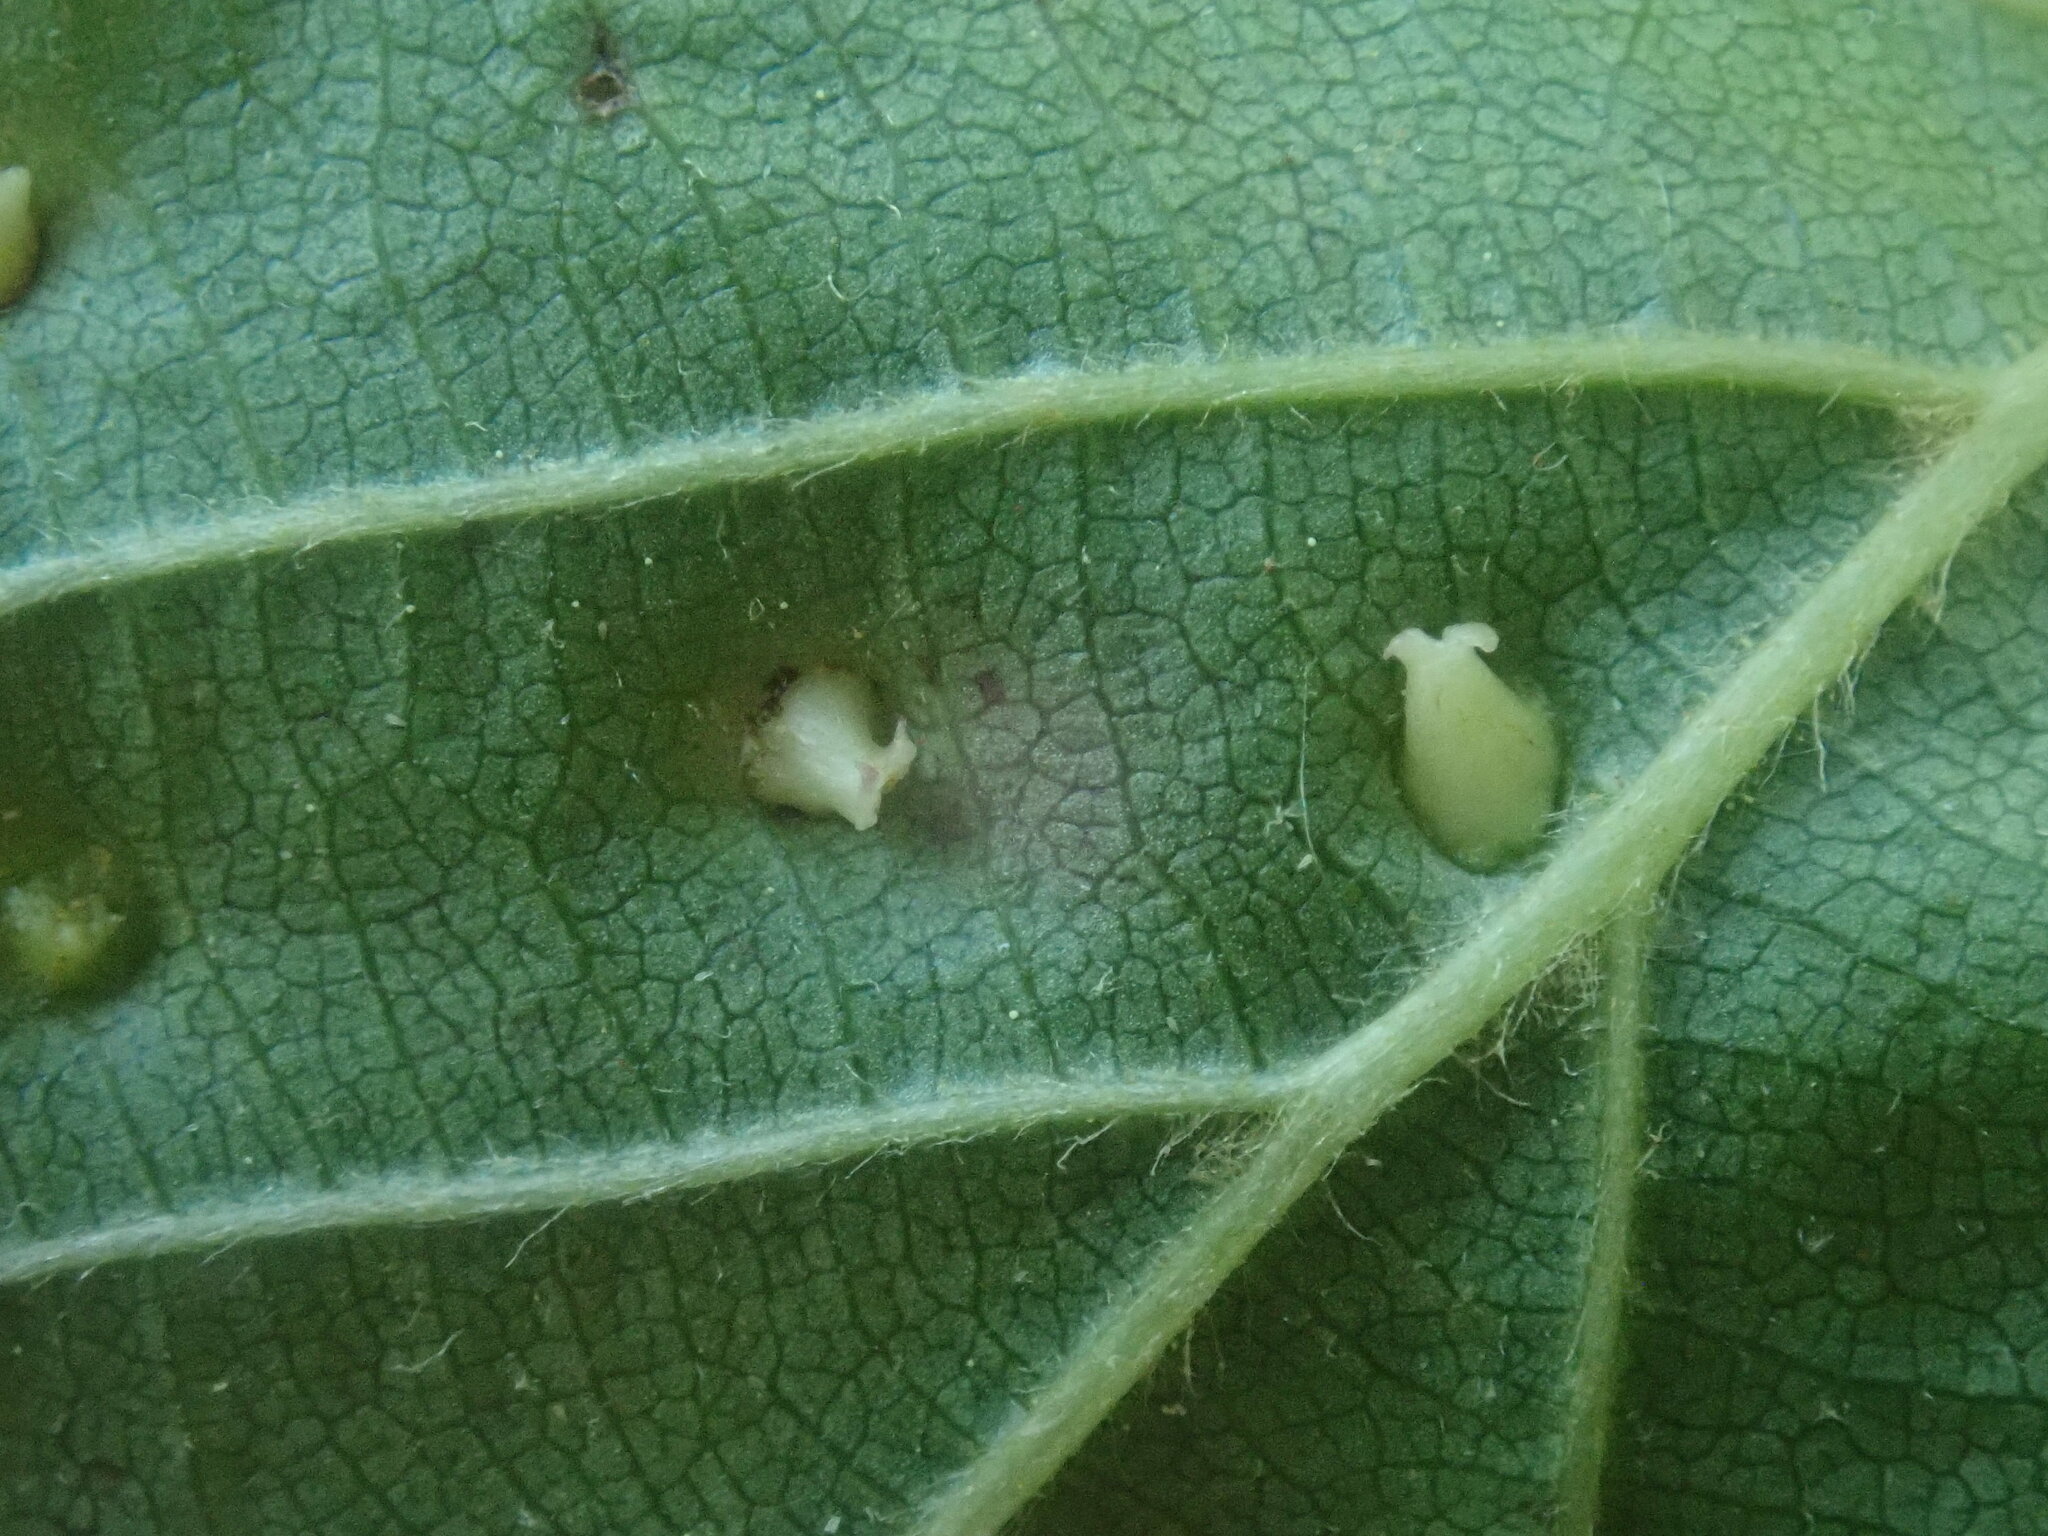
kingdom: Animalia
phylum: Arthropoda
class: Arachnida
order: Trombidiformes
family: Eriophyidae
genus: Eriophyes
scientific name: Eriophyes laevis
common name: Alder leaf gall mite
